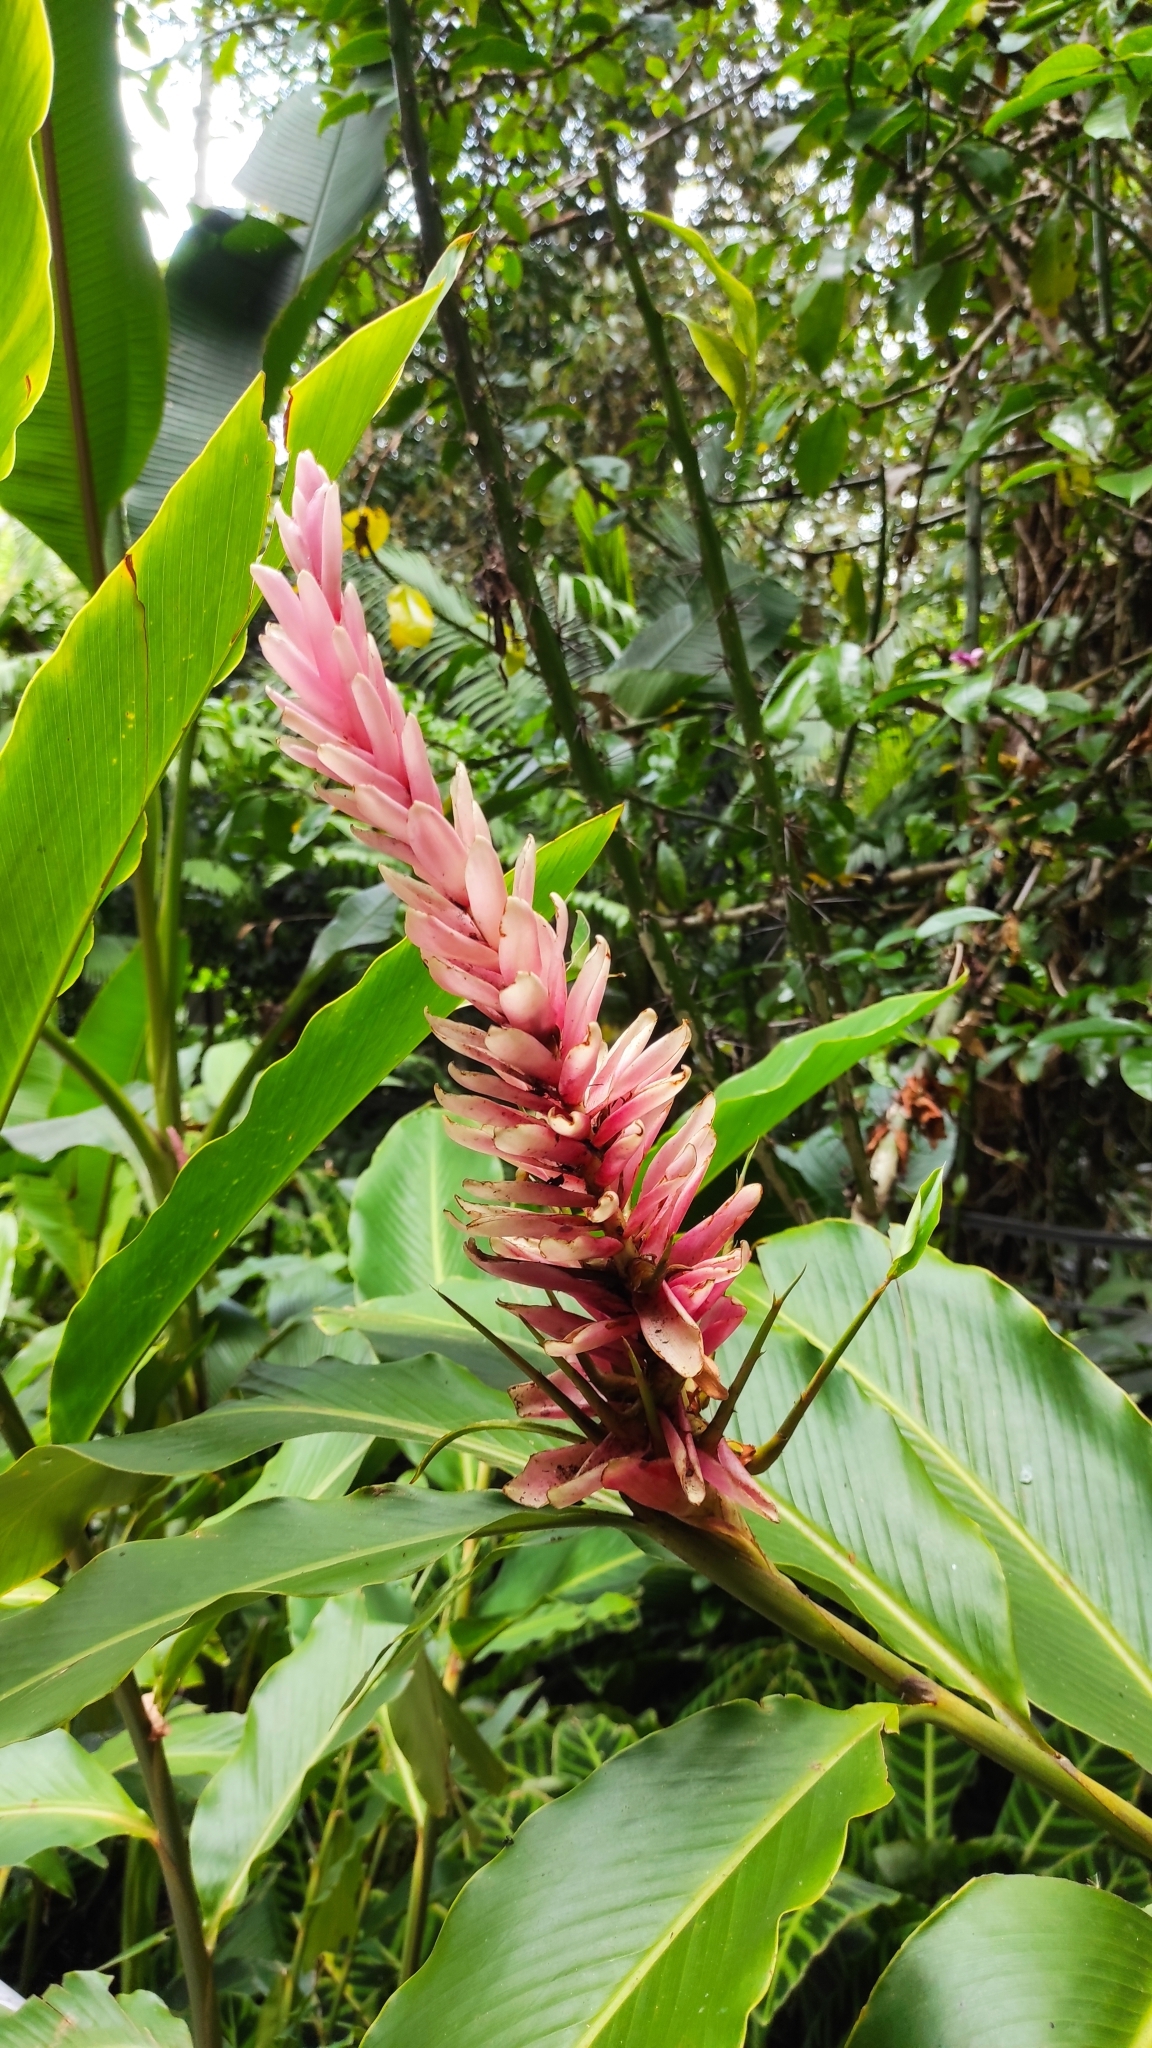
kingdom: Plantae
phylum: Tracheophyta
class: Liliopsida
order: Zingiberales
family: Zingiberaceae
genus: Alpinia
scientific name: Alpinia purpurata
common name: Red ginger
